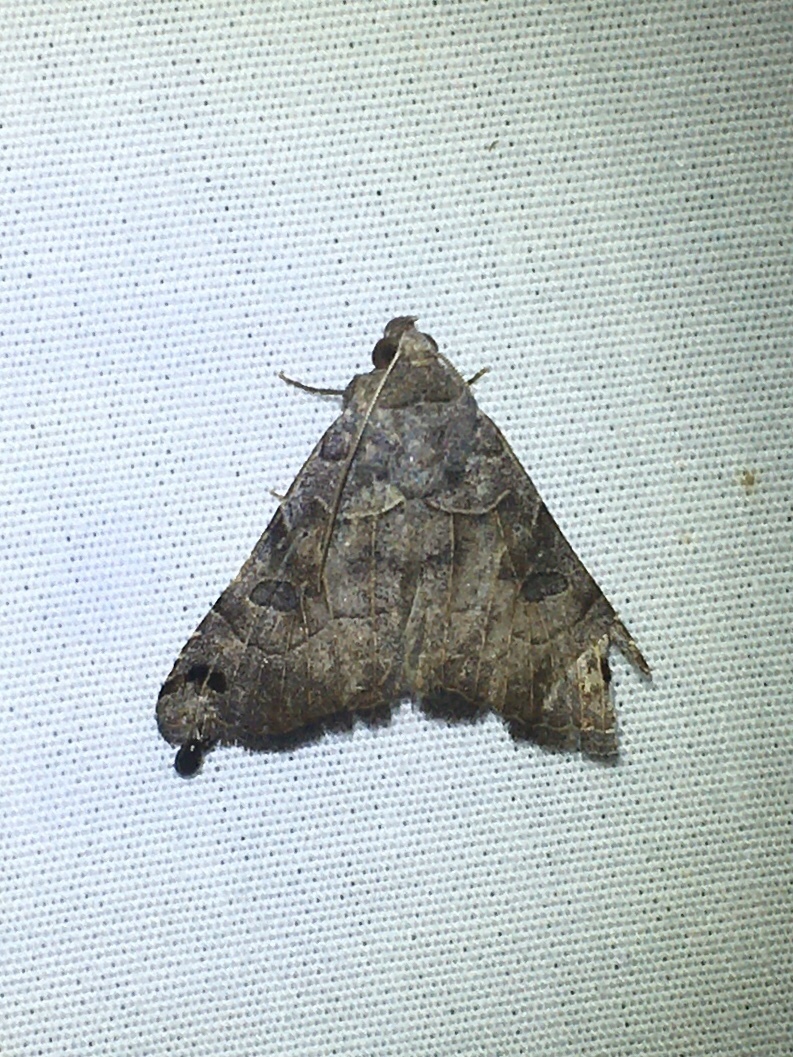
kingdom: Animalia
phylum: Arthropoda
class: Insecta
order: Lepidoptera
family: Erebidae
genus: Isogona
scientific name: Isogona scindens
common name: Owlet moth
